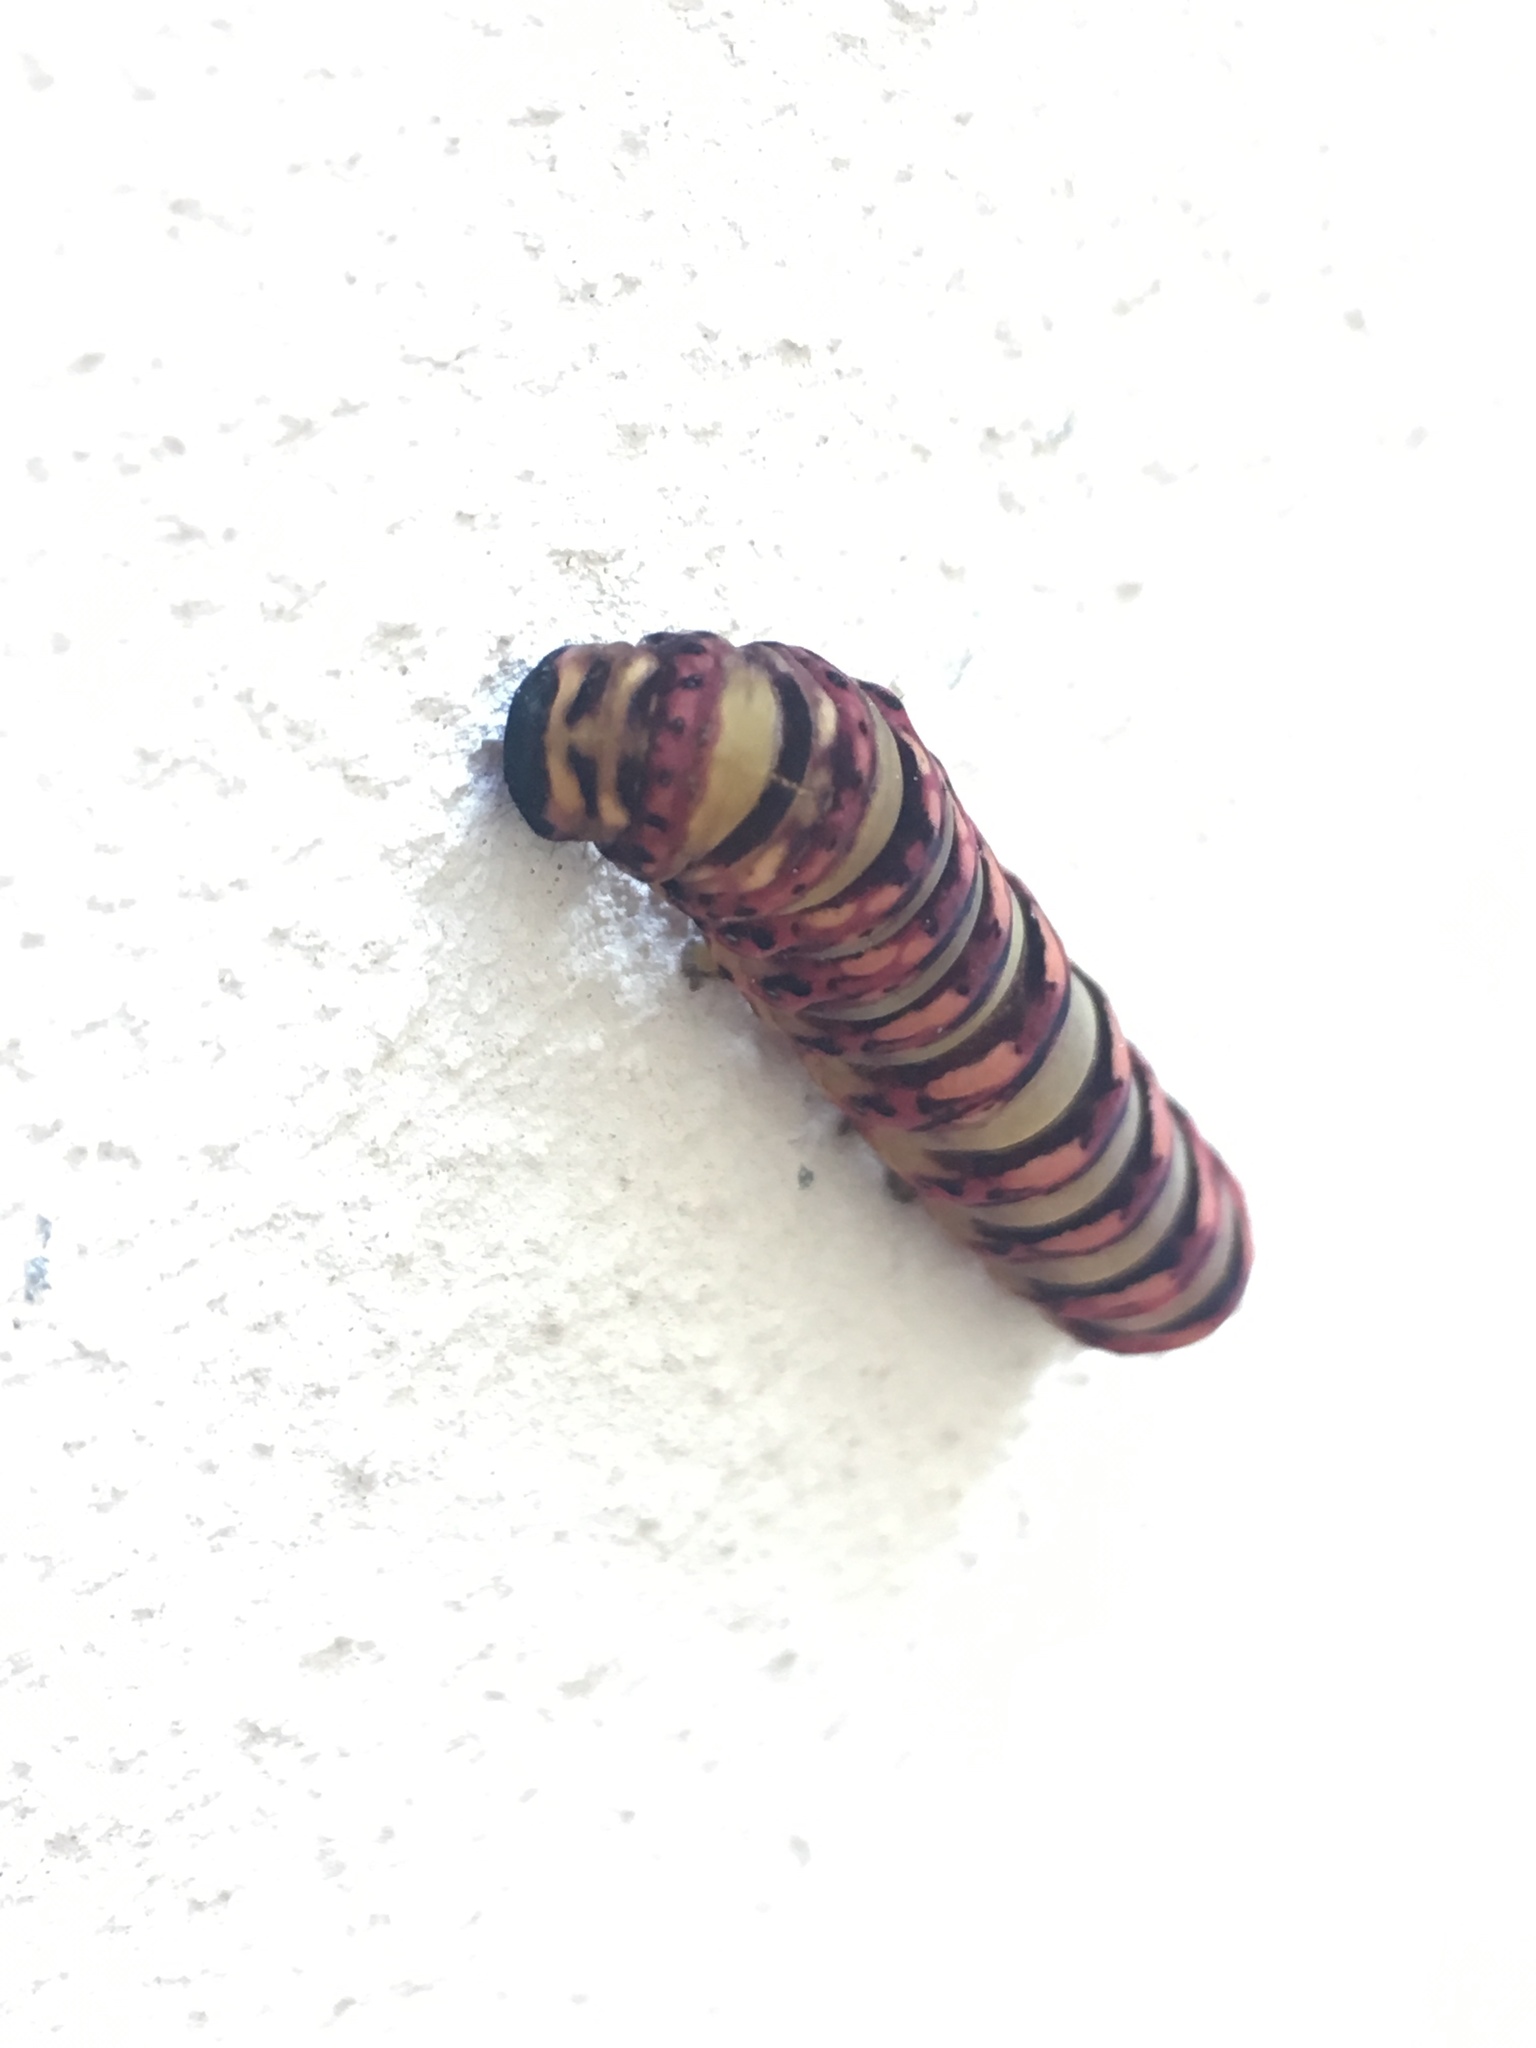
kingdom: Animalia
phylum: Arthropoda
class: Insecta
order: Lepidoptera
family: Noctuidae
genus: Klugeana
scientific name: Klugeana philoxalis
